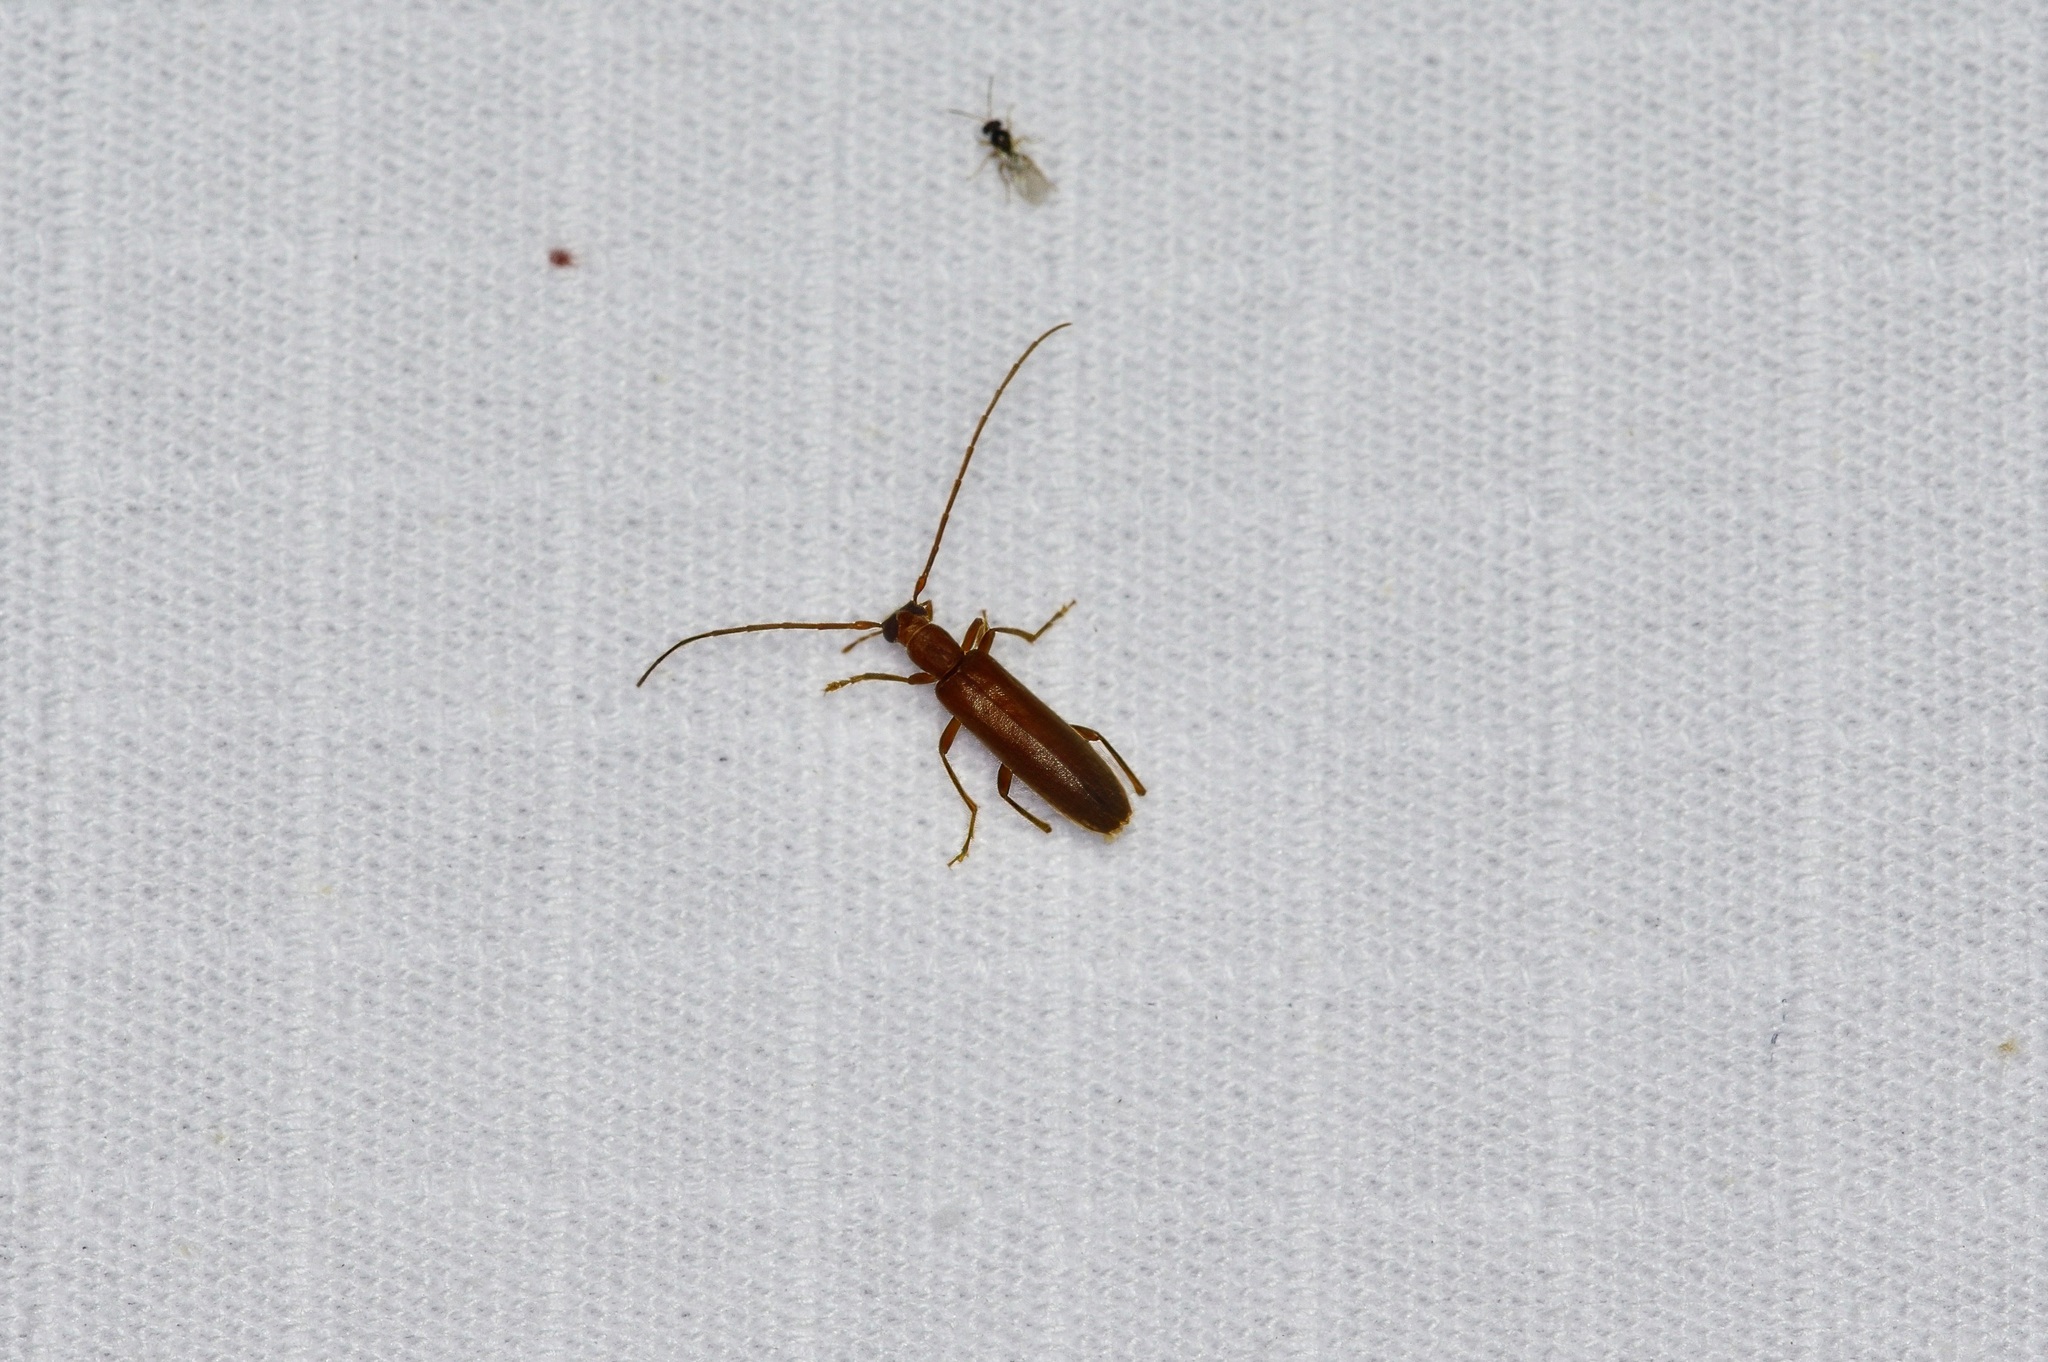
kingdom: Animalia
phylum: Arthropoda
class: Insecta
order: Coleoptera
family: Oedemeridae
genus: Sparedrus
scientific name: Sparedrus aspersus
